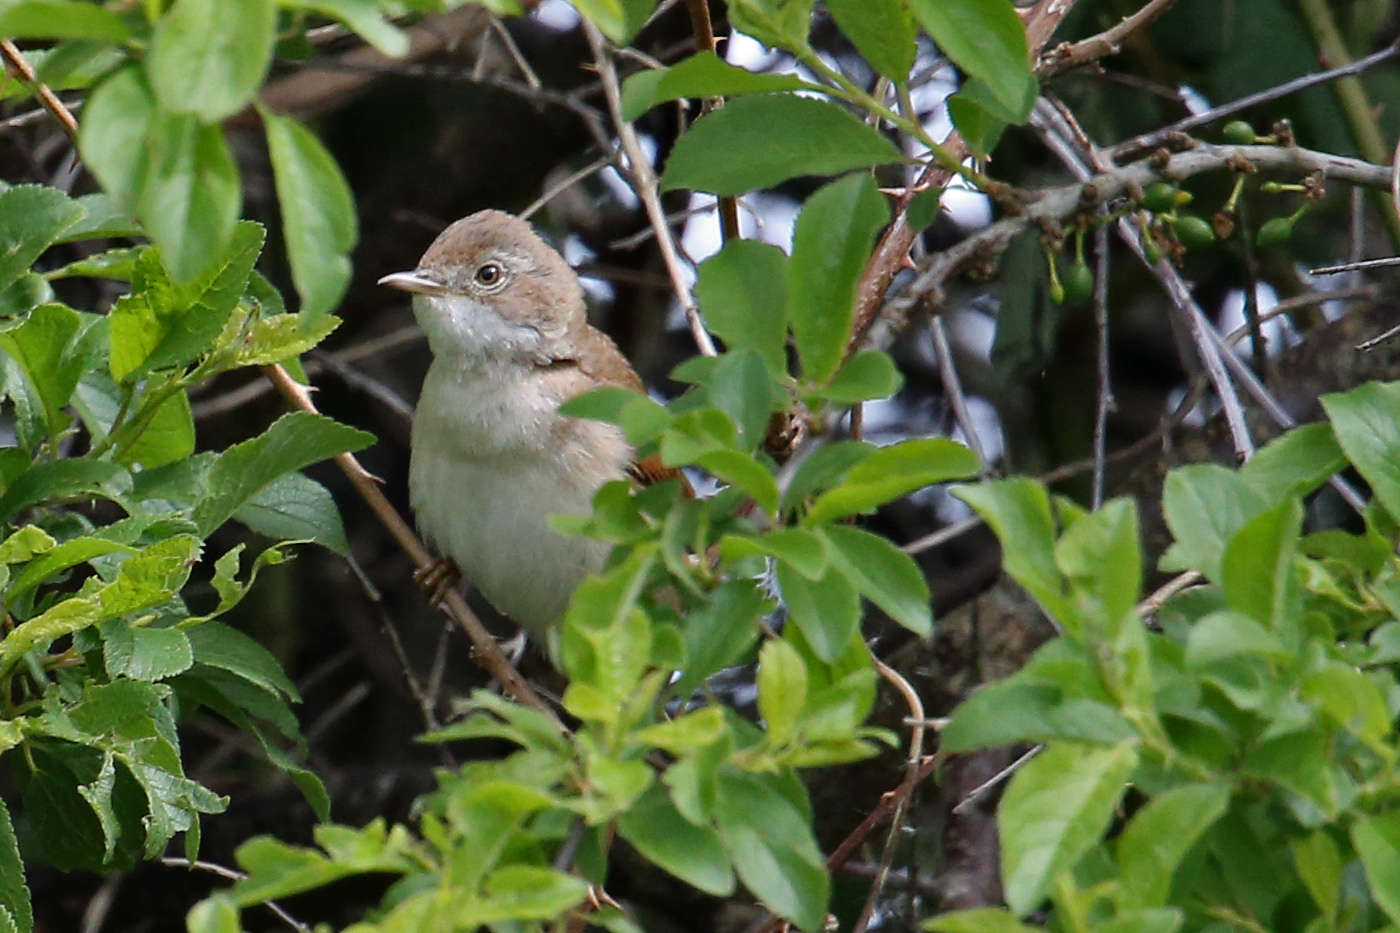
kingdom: Animalia
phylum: Chordata
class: Aves
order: Passeriformes
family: Sylviidae
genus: Sylvia
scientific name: Sylvia communis
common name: Common whitethroat
